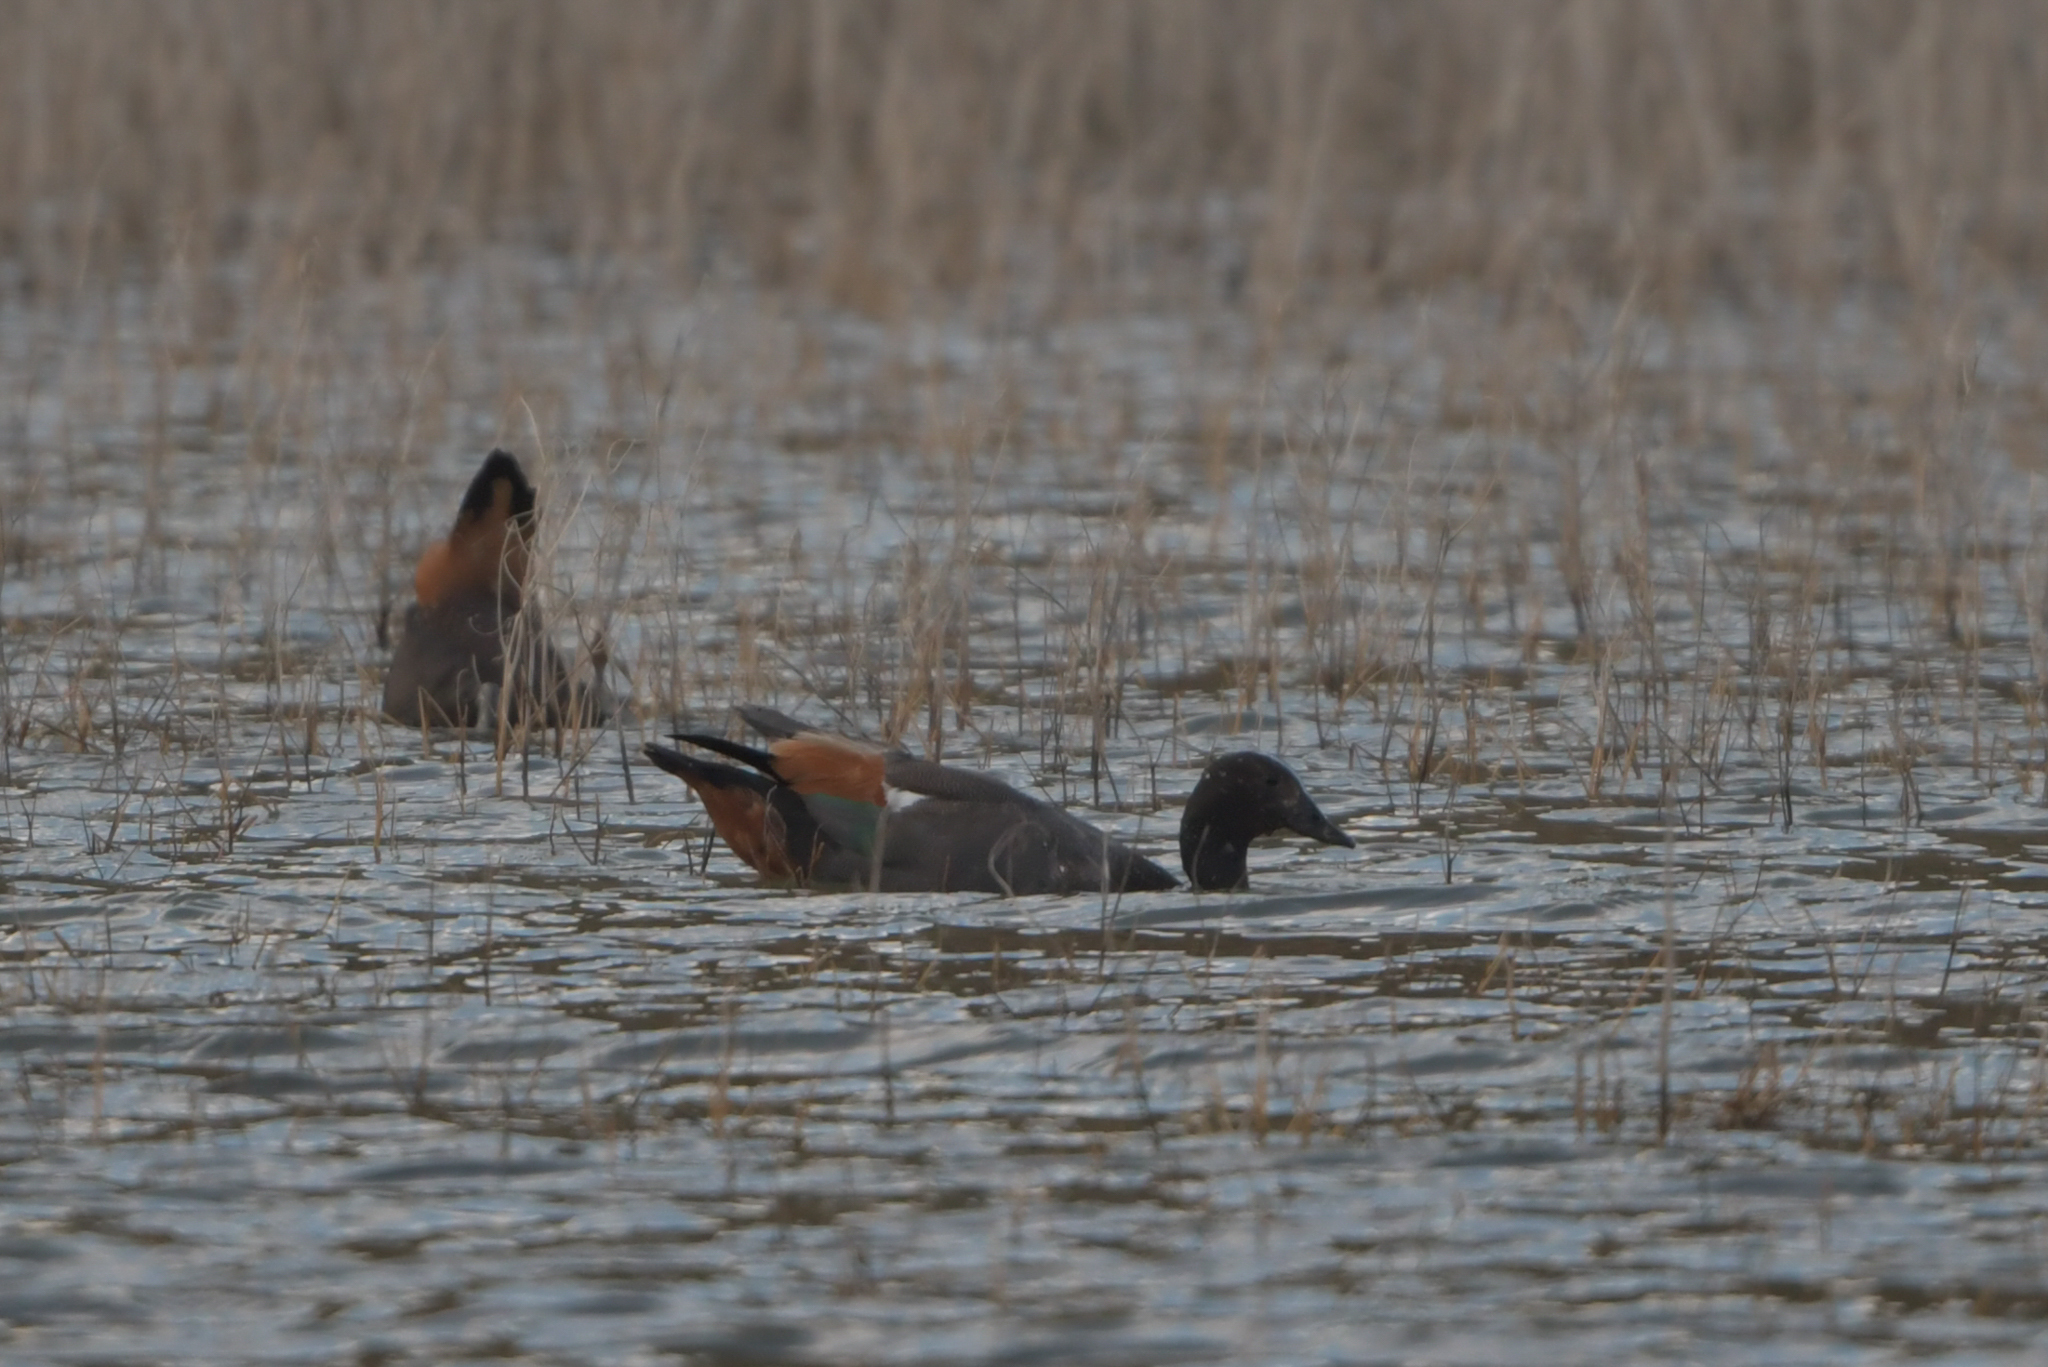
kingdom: Animalia
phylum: Chordata
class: Aves
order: Anseriformes
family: Anatidae
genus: Tadorna
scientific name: Tadorna variegata
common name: Paradise shelduck
